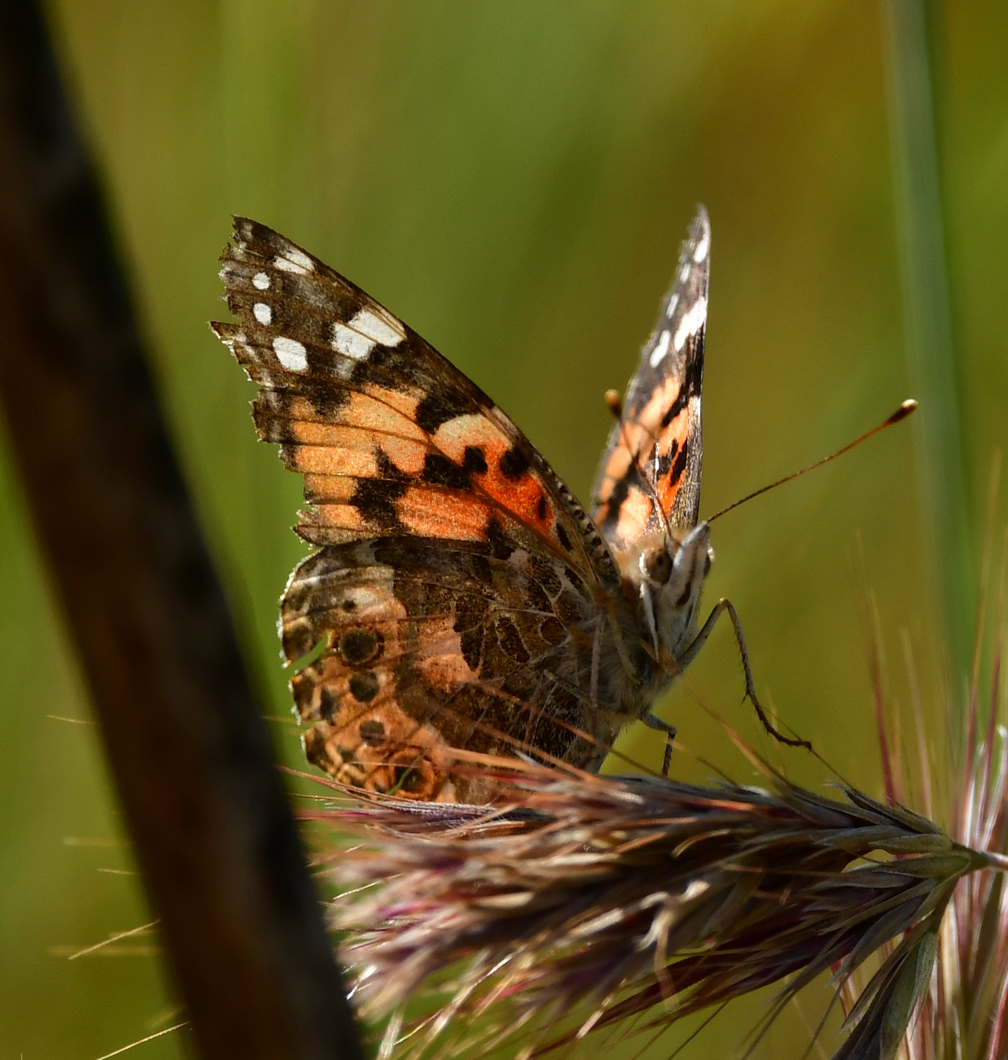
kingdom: Animalia
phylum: Arthropoda
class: Insecta
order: Lepidoptera
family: Nymphalidae
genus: Vanessa
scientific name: Vanessa cardui
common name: Painted lady
